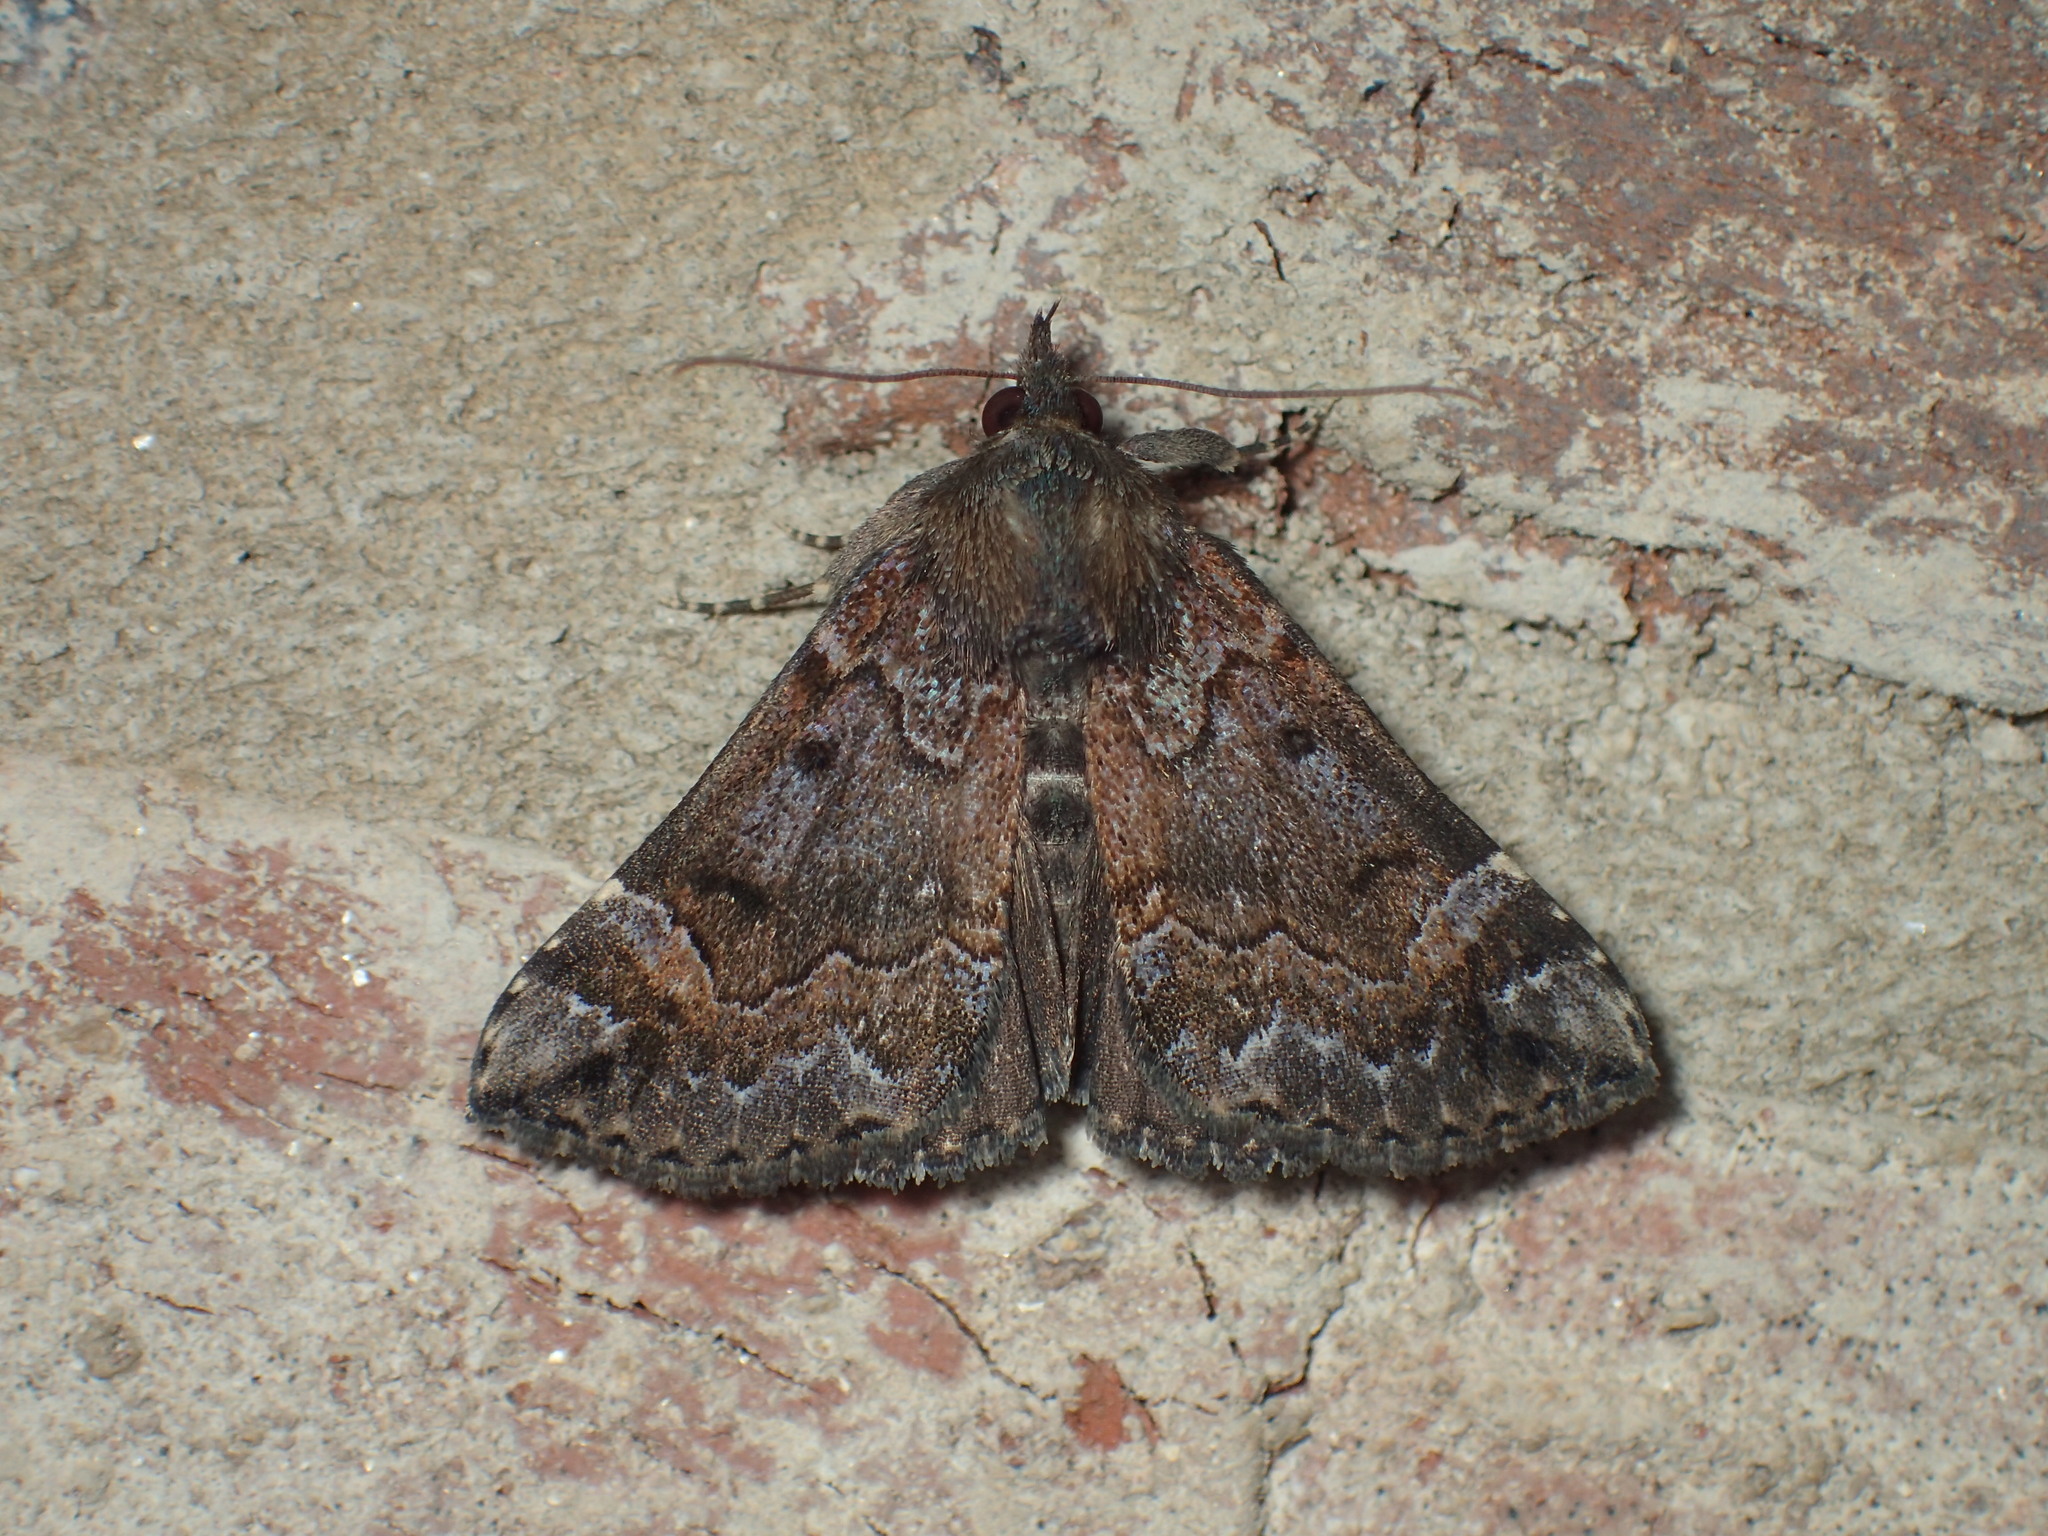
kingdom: Animalia
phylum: Arthropoda
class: Insecta
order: Lepidoptera
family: Erebidae
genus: Hypena
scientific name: Hypena palparia
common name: Mottled bomolocha moth
